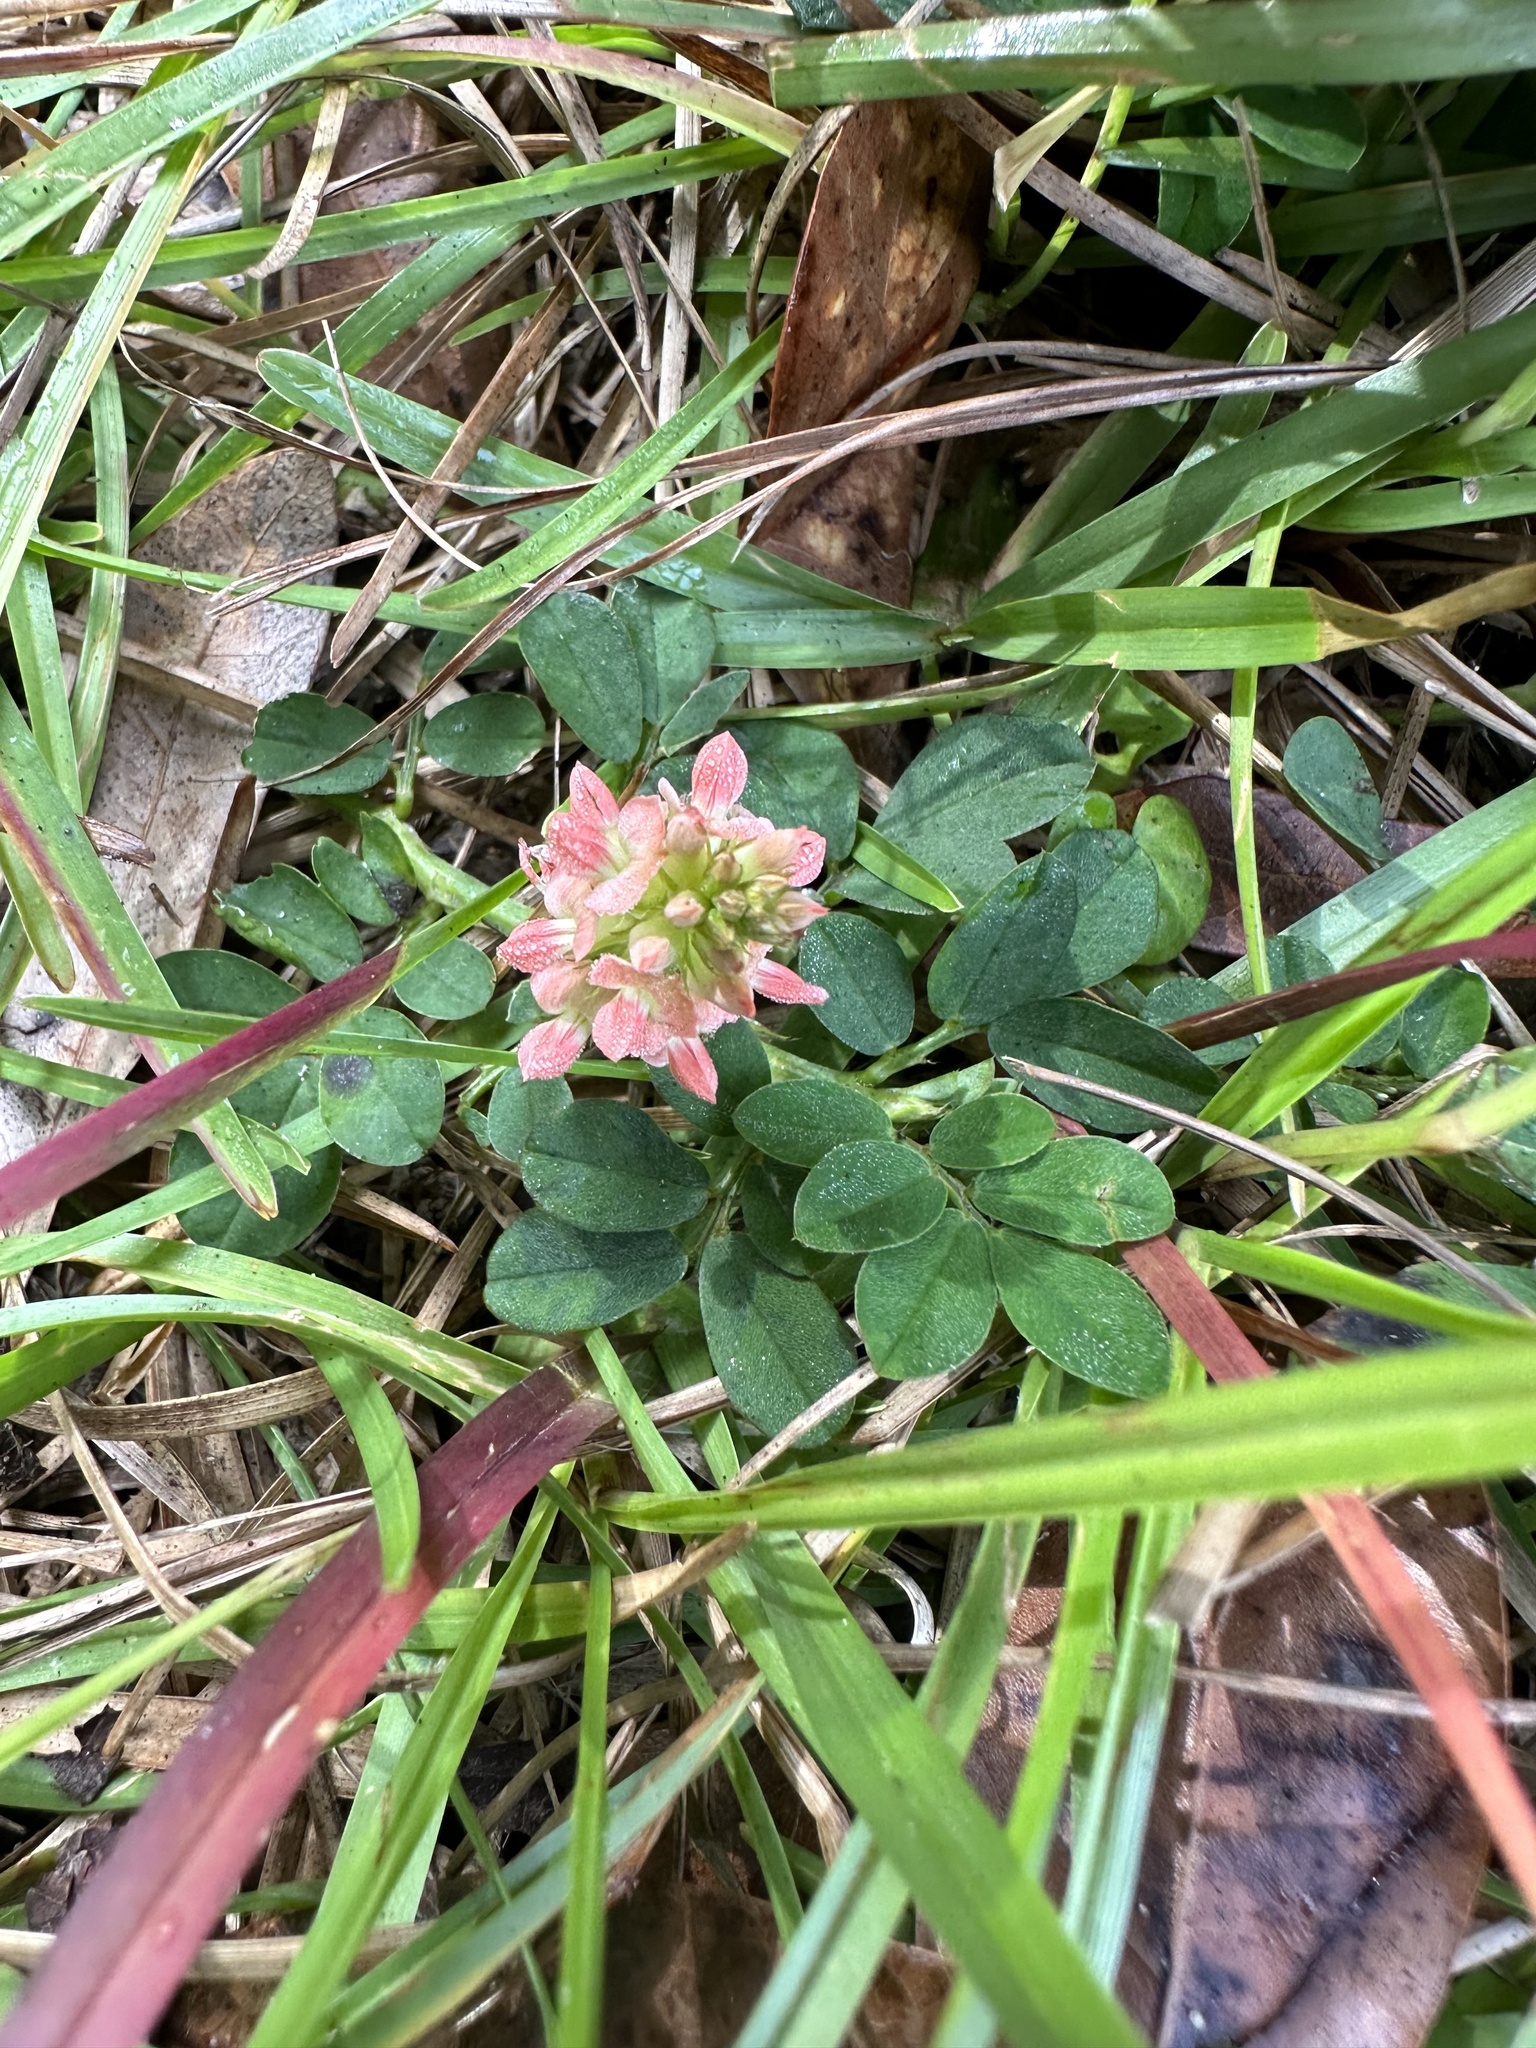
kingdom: Plantae
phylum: Tracheophyta
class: Magnoliopsida
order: Fabales
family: Fabaceae
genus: Indigofera
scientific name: Indigofera spicata
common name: Creeping indigo
